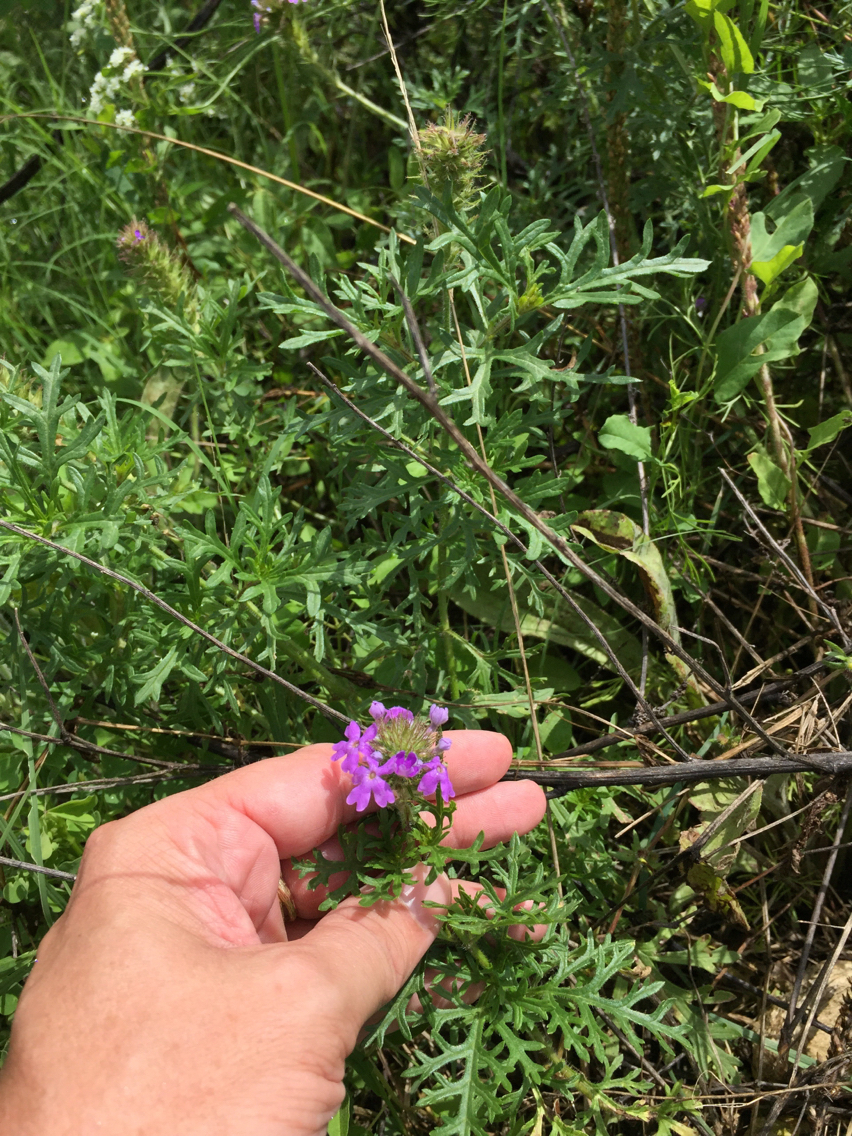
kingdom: Plantae
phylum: Tracheophyta
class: Magnoliopsida
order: Lamiales
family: Verbenaceae
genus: Verbena
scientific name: Verbena bipinnatifida
